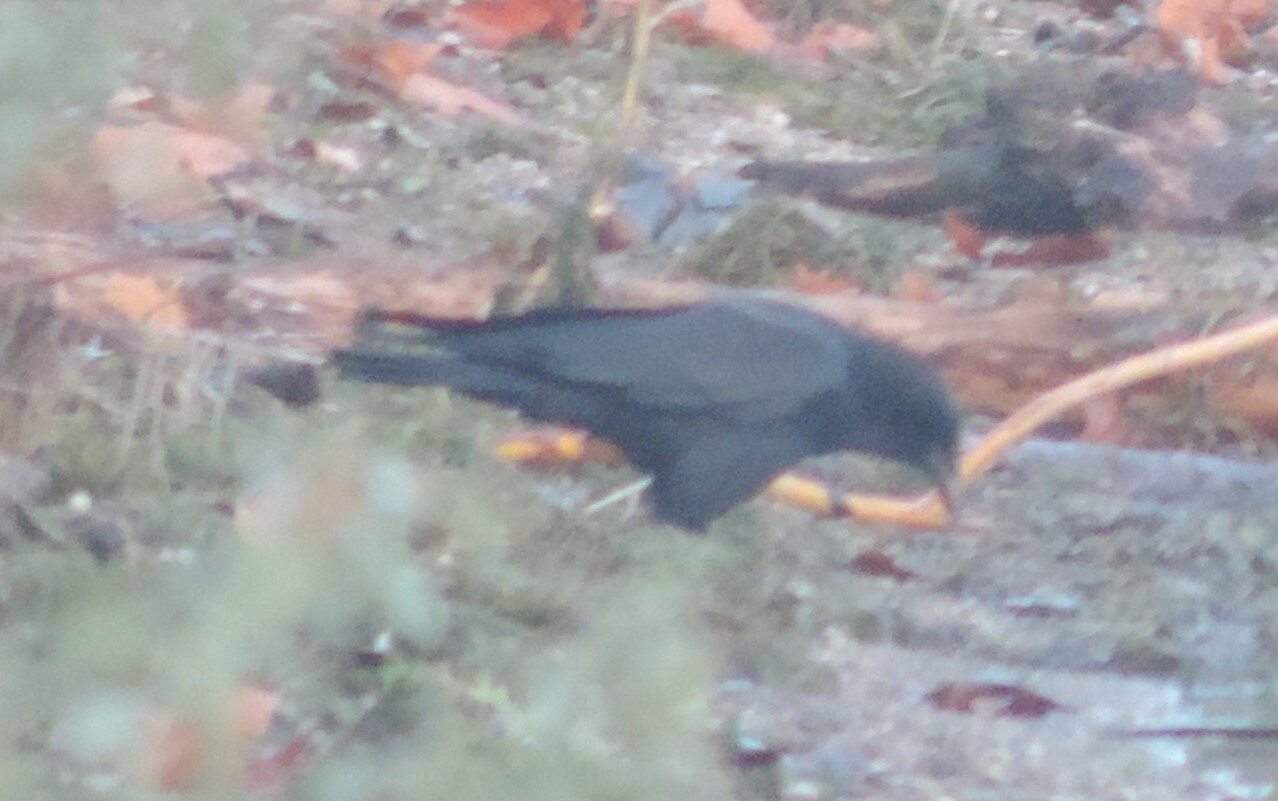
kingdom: Animalia
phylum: Chordata
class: Aves
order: Passeriformes
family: Corvidae
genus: Corvus
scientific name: Corvus brachyrhynchos
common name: American crow
